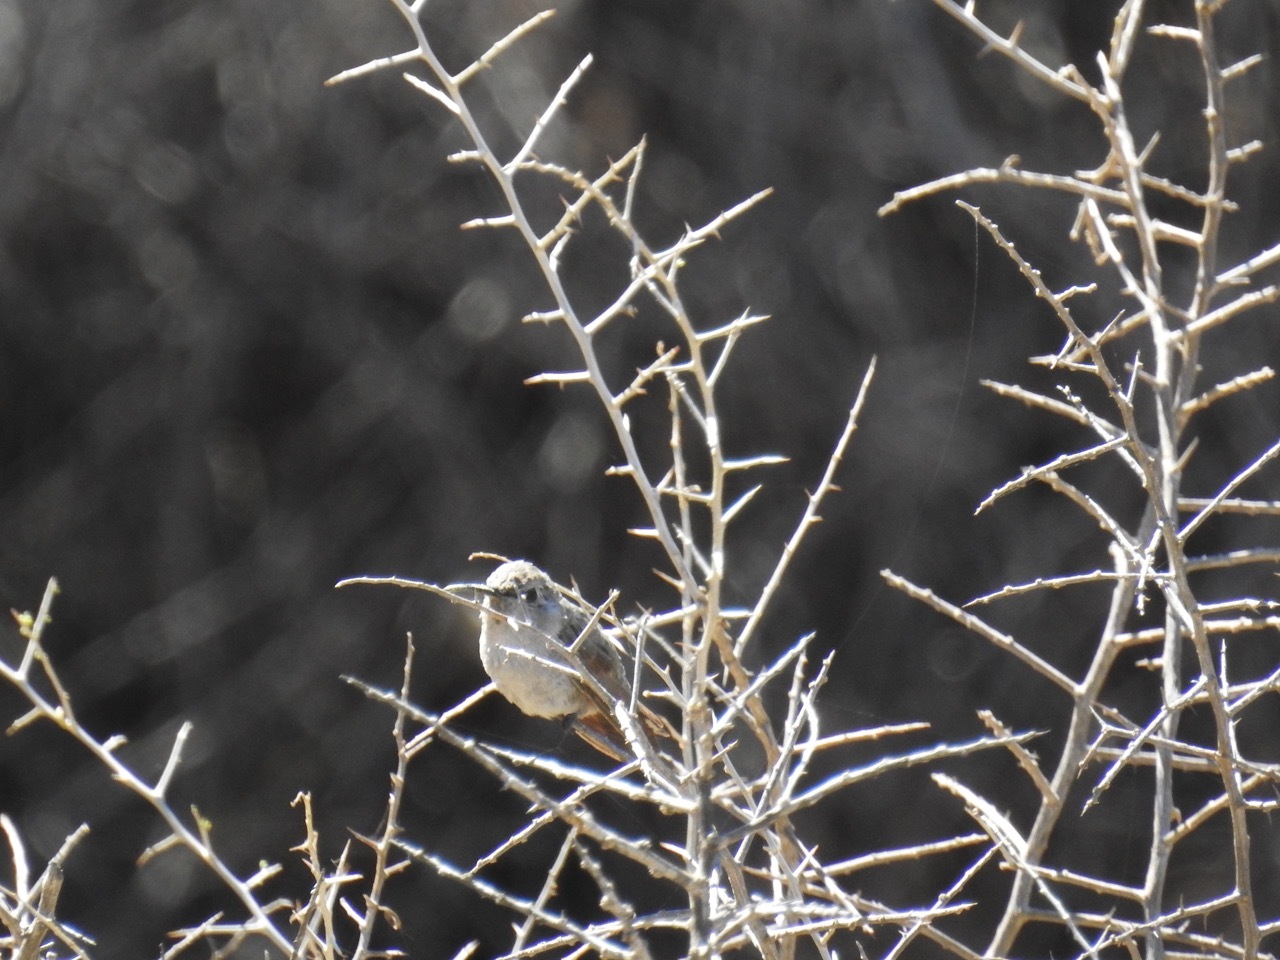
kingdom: Animalia
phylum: Chordata
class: Aves
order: Apodiformes
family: Trochilidae
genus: Calypte
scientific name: Calypte costae
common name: Costa's hummingbird
